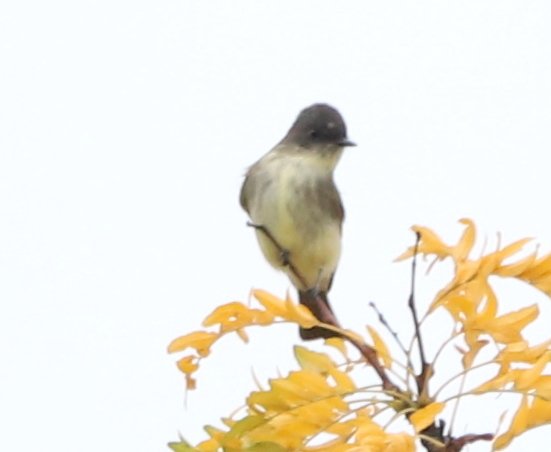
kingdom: Animalia
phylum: Chordata
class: Aves
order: Passeriformes
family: Tyrannidae
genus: Sayornis
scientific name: Sayornis phoebe
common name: Eastern phoebe
